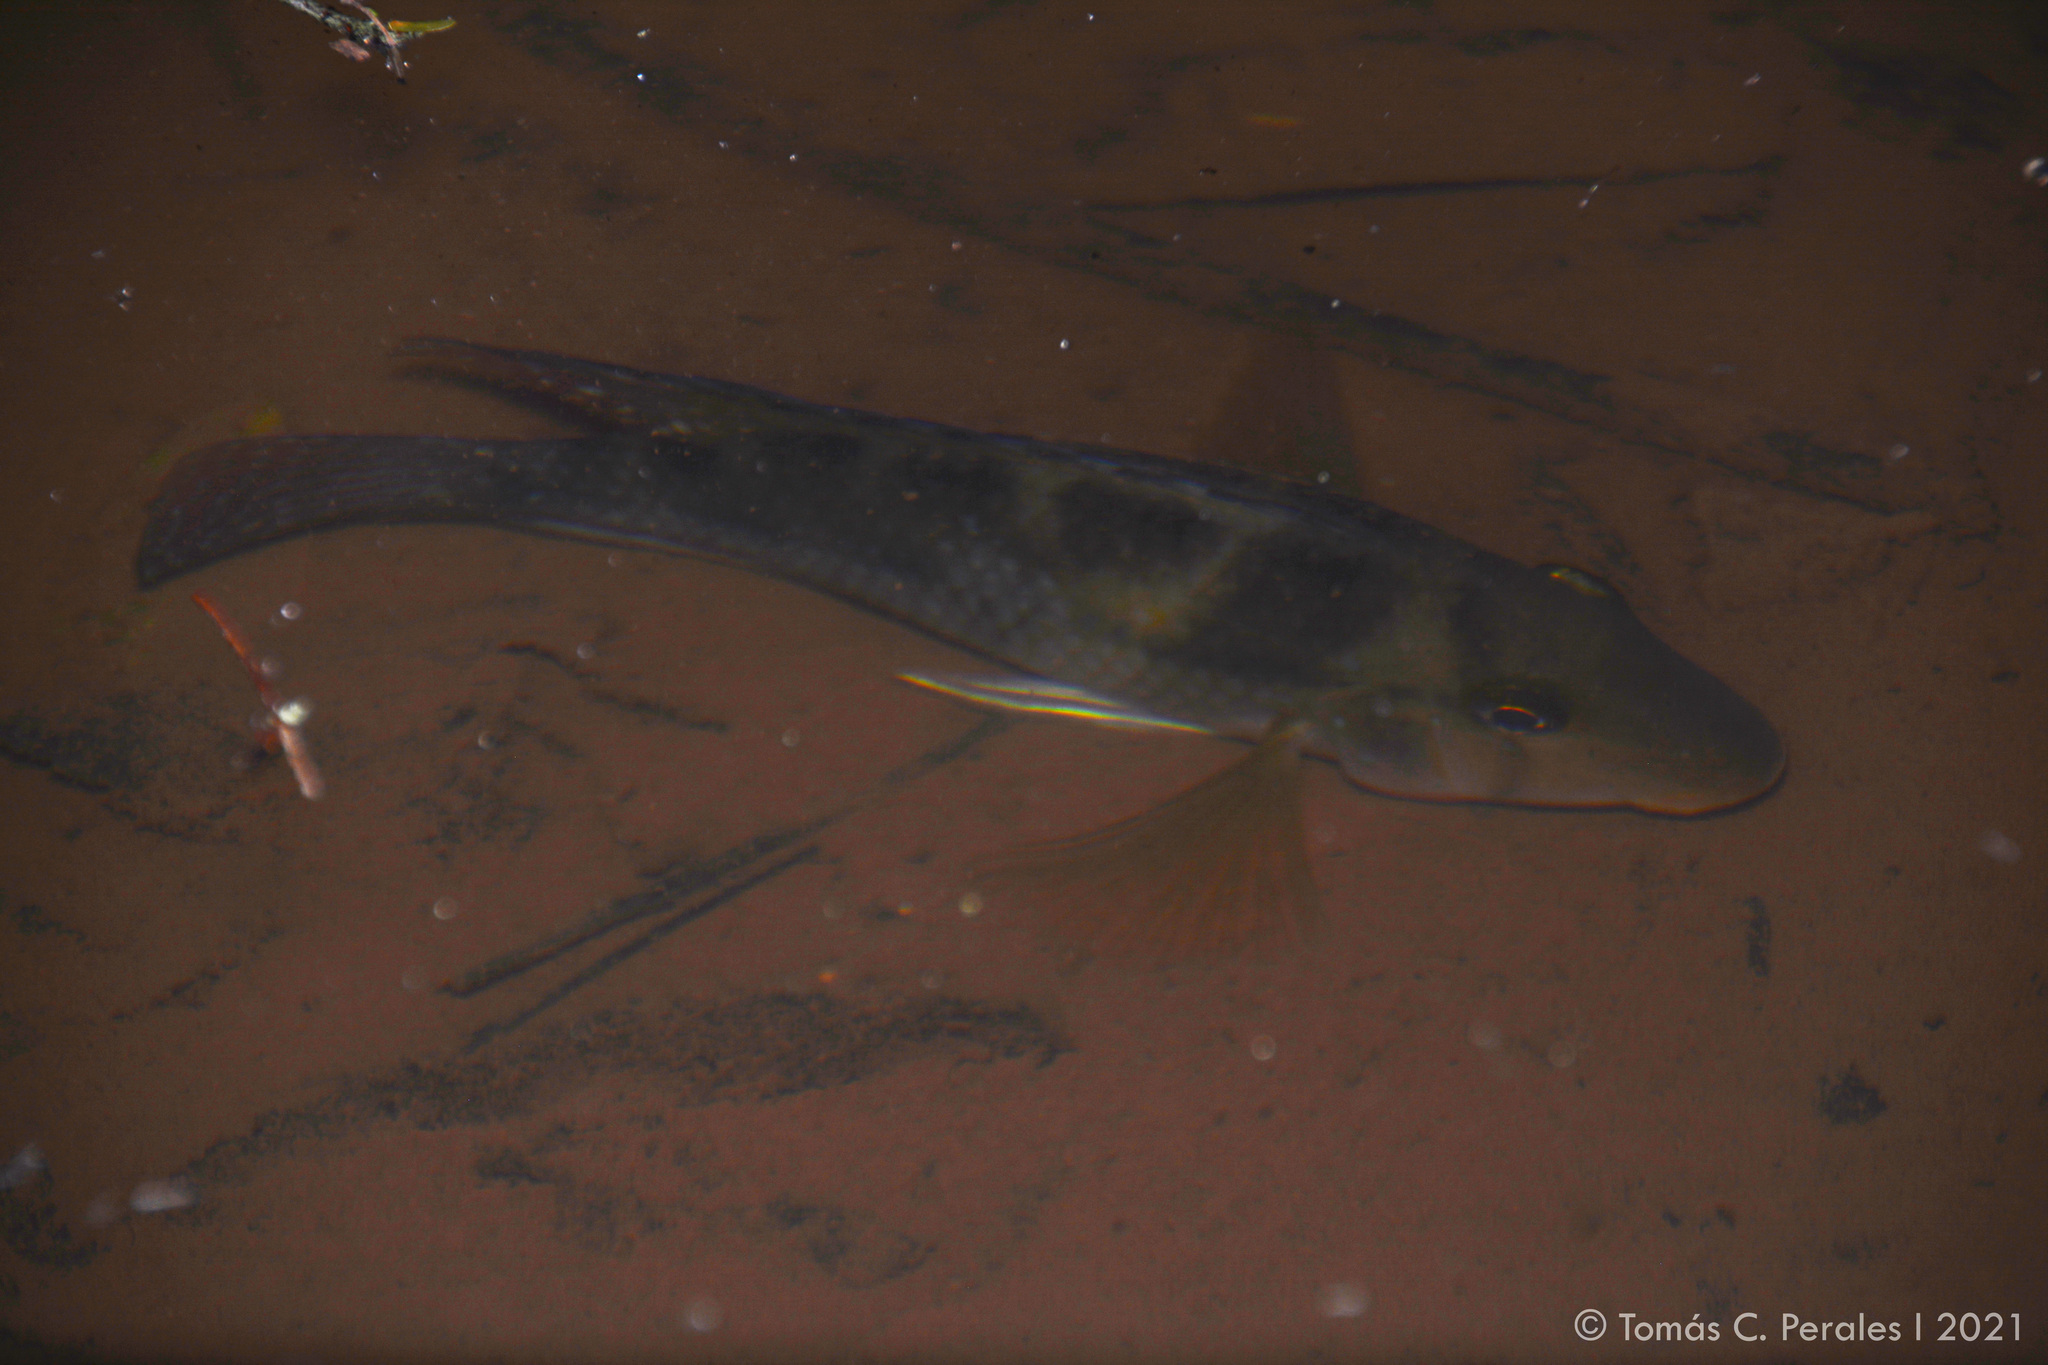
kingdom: Animalia
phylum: Chordata
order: Perciformes
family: Cichlidae
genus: Geophagus
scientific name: Geophagus brasiliensis
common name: Braziliensis
